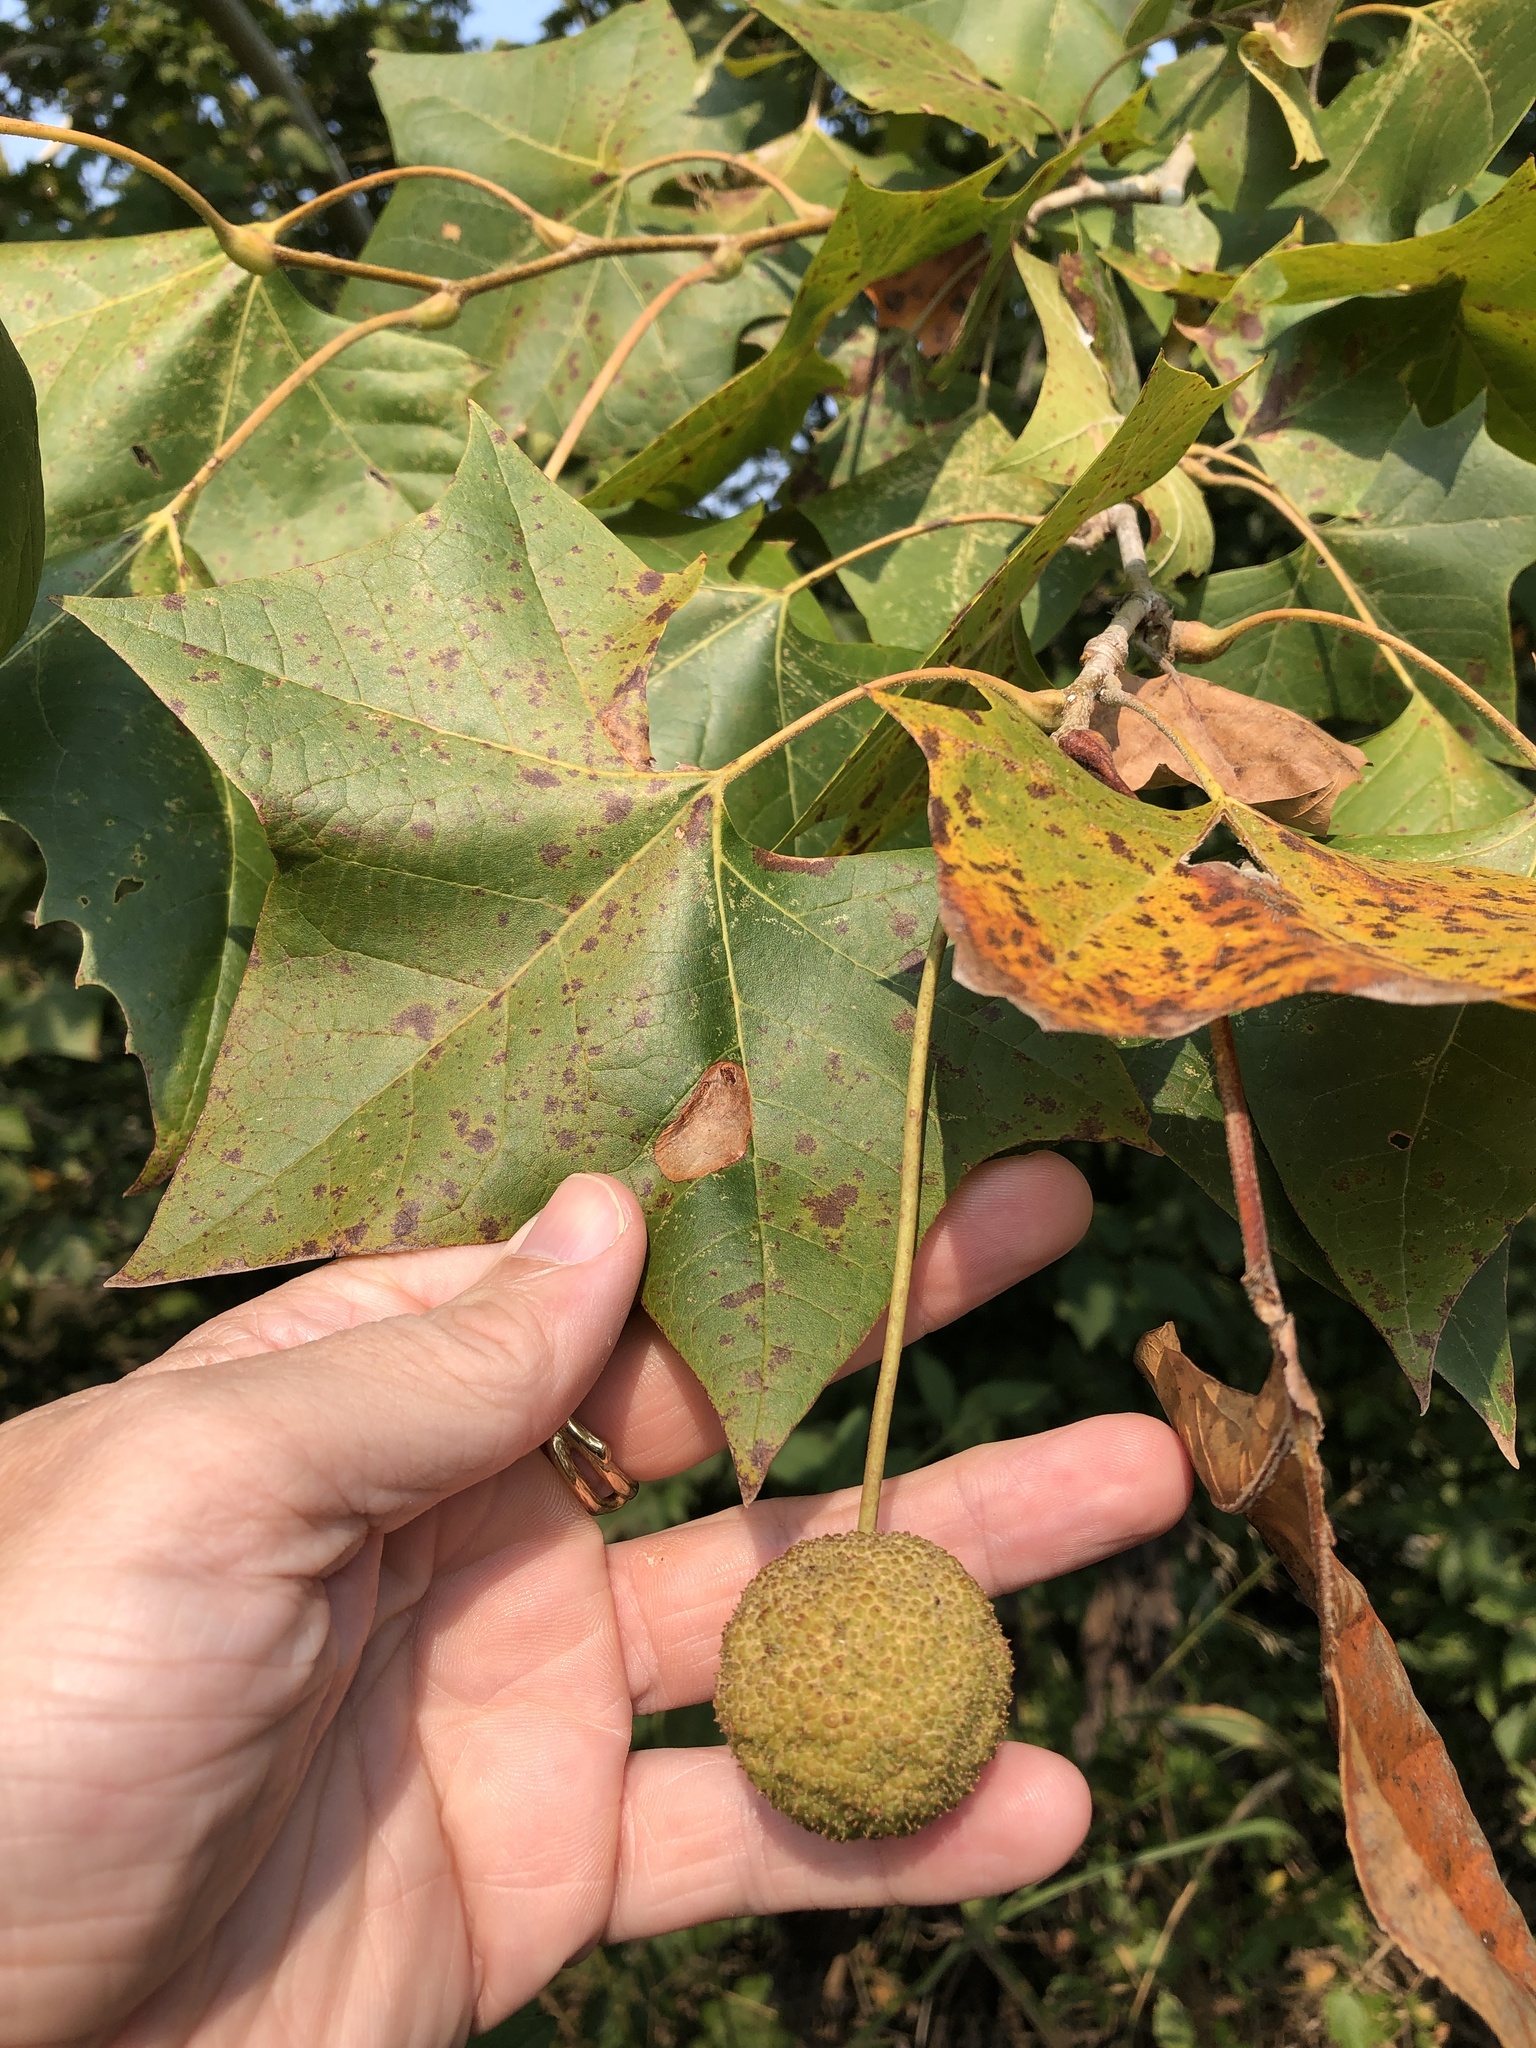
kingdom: Plantae
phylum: Tracheophyta
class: Magnoliopsida
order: Proteales
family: Platanaceae
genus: Platanus
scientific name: Platanus occidentalis
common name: American sycamore
